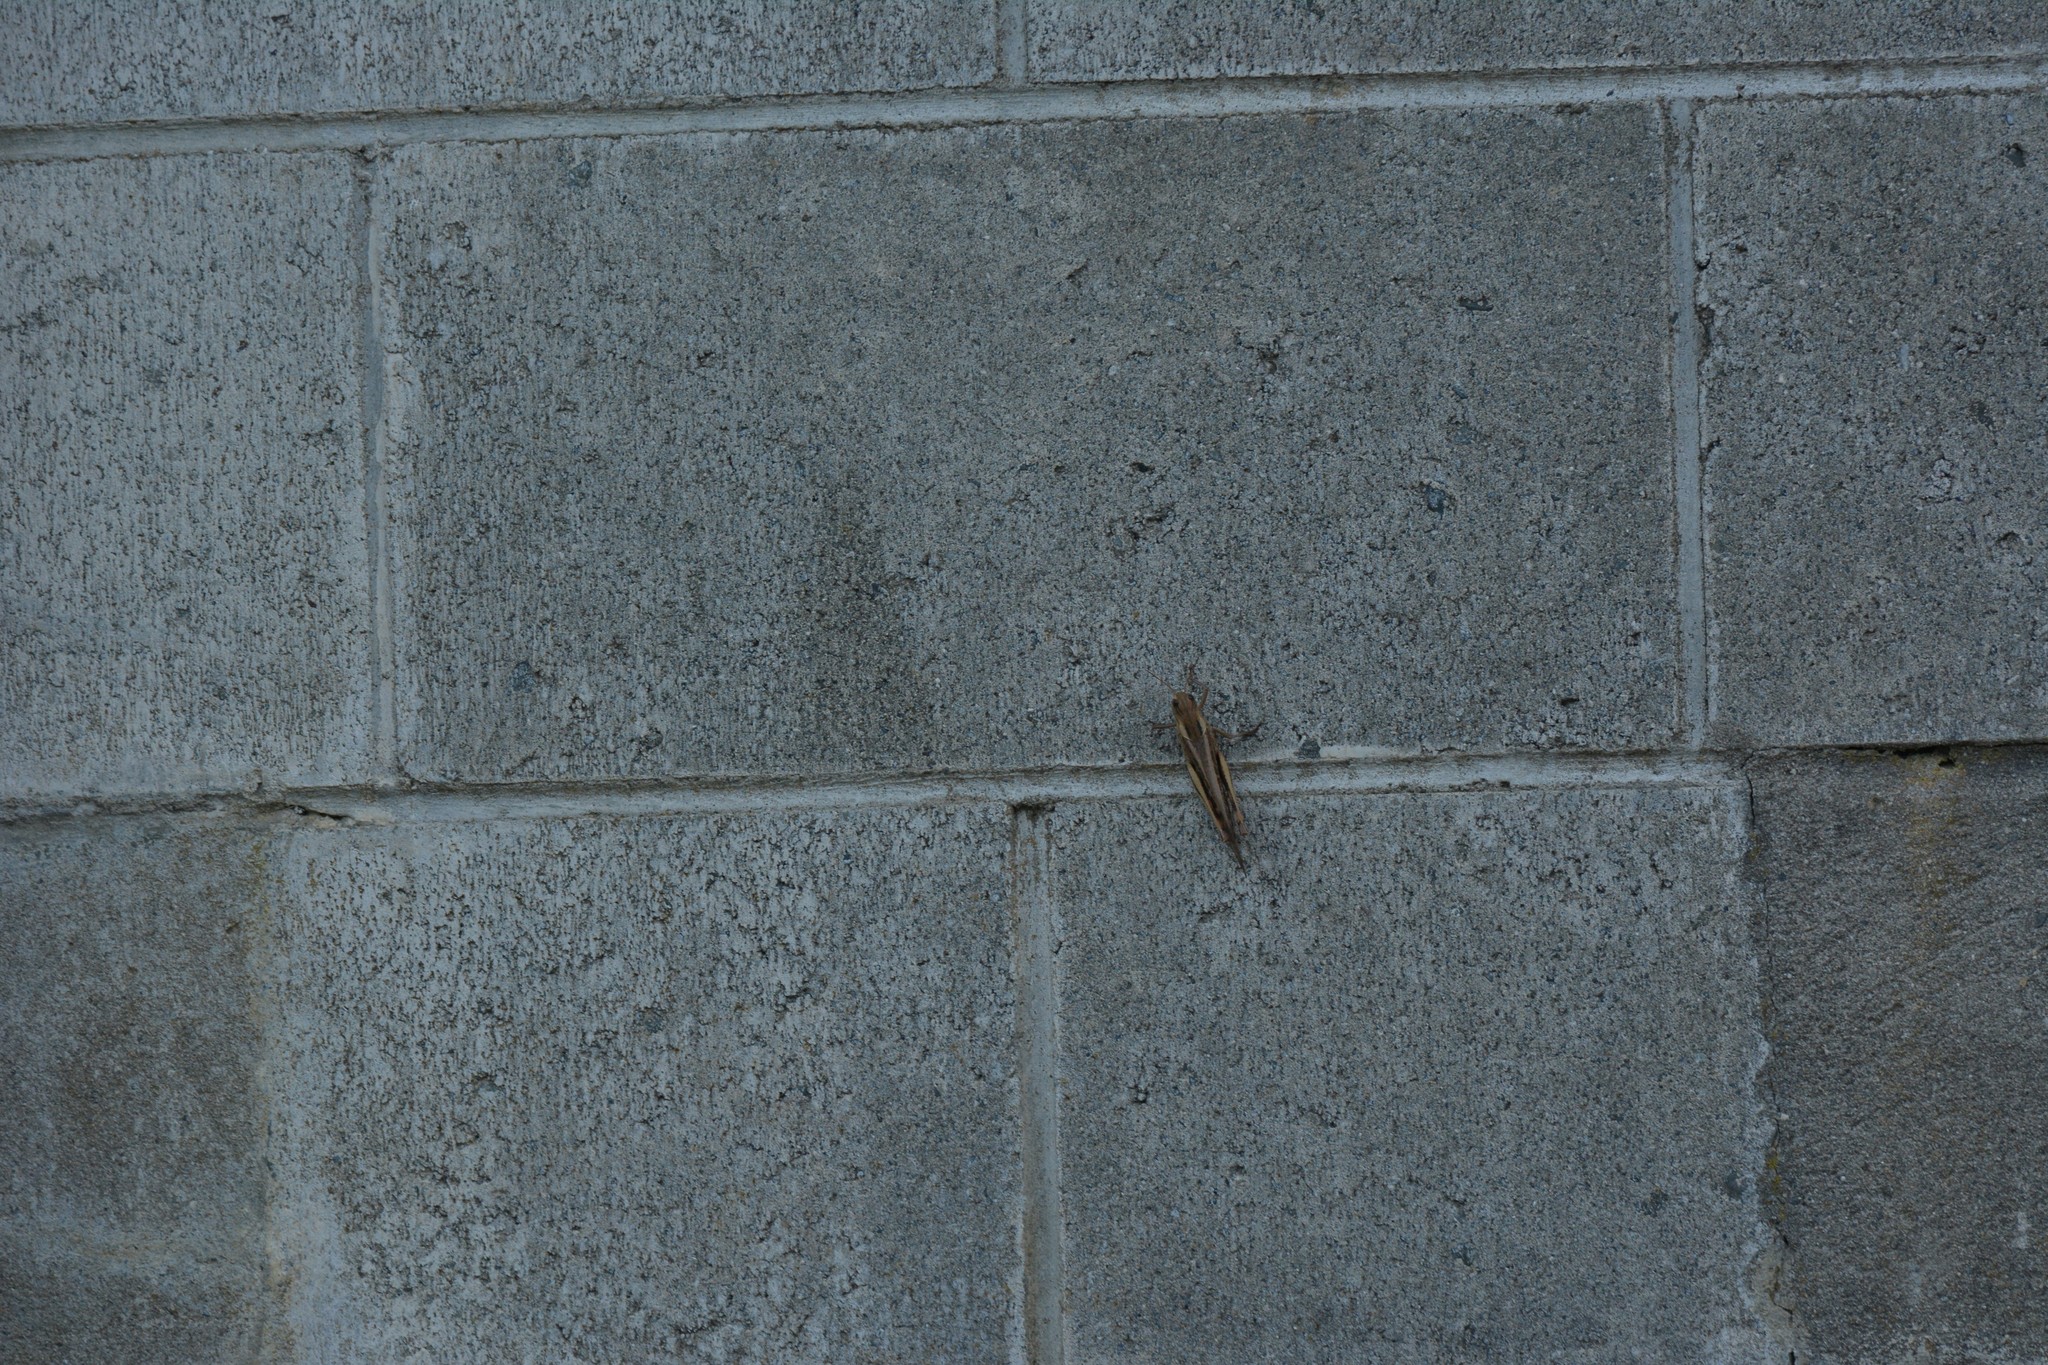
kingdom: Animalia
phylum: Arthropoda
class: Insecta
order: Orthoptera
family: Acrididae
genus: Locusta
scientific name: Locusta migratoria
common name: Migratory locust
